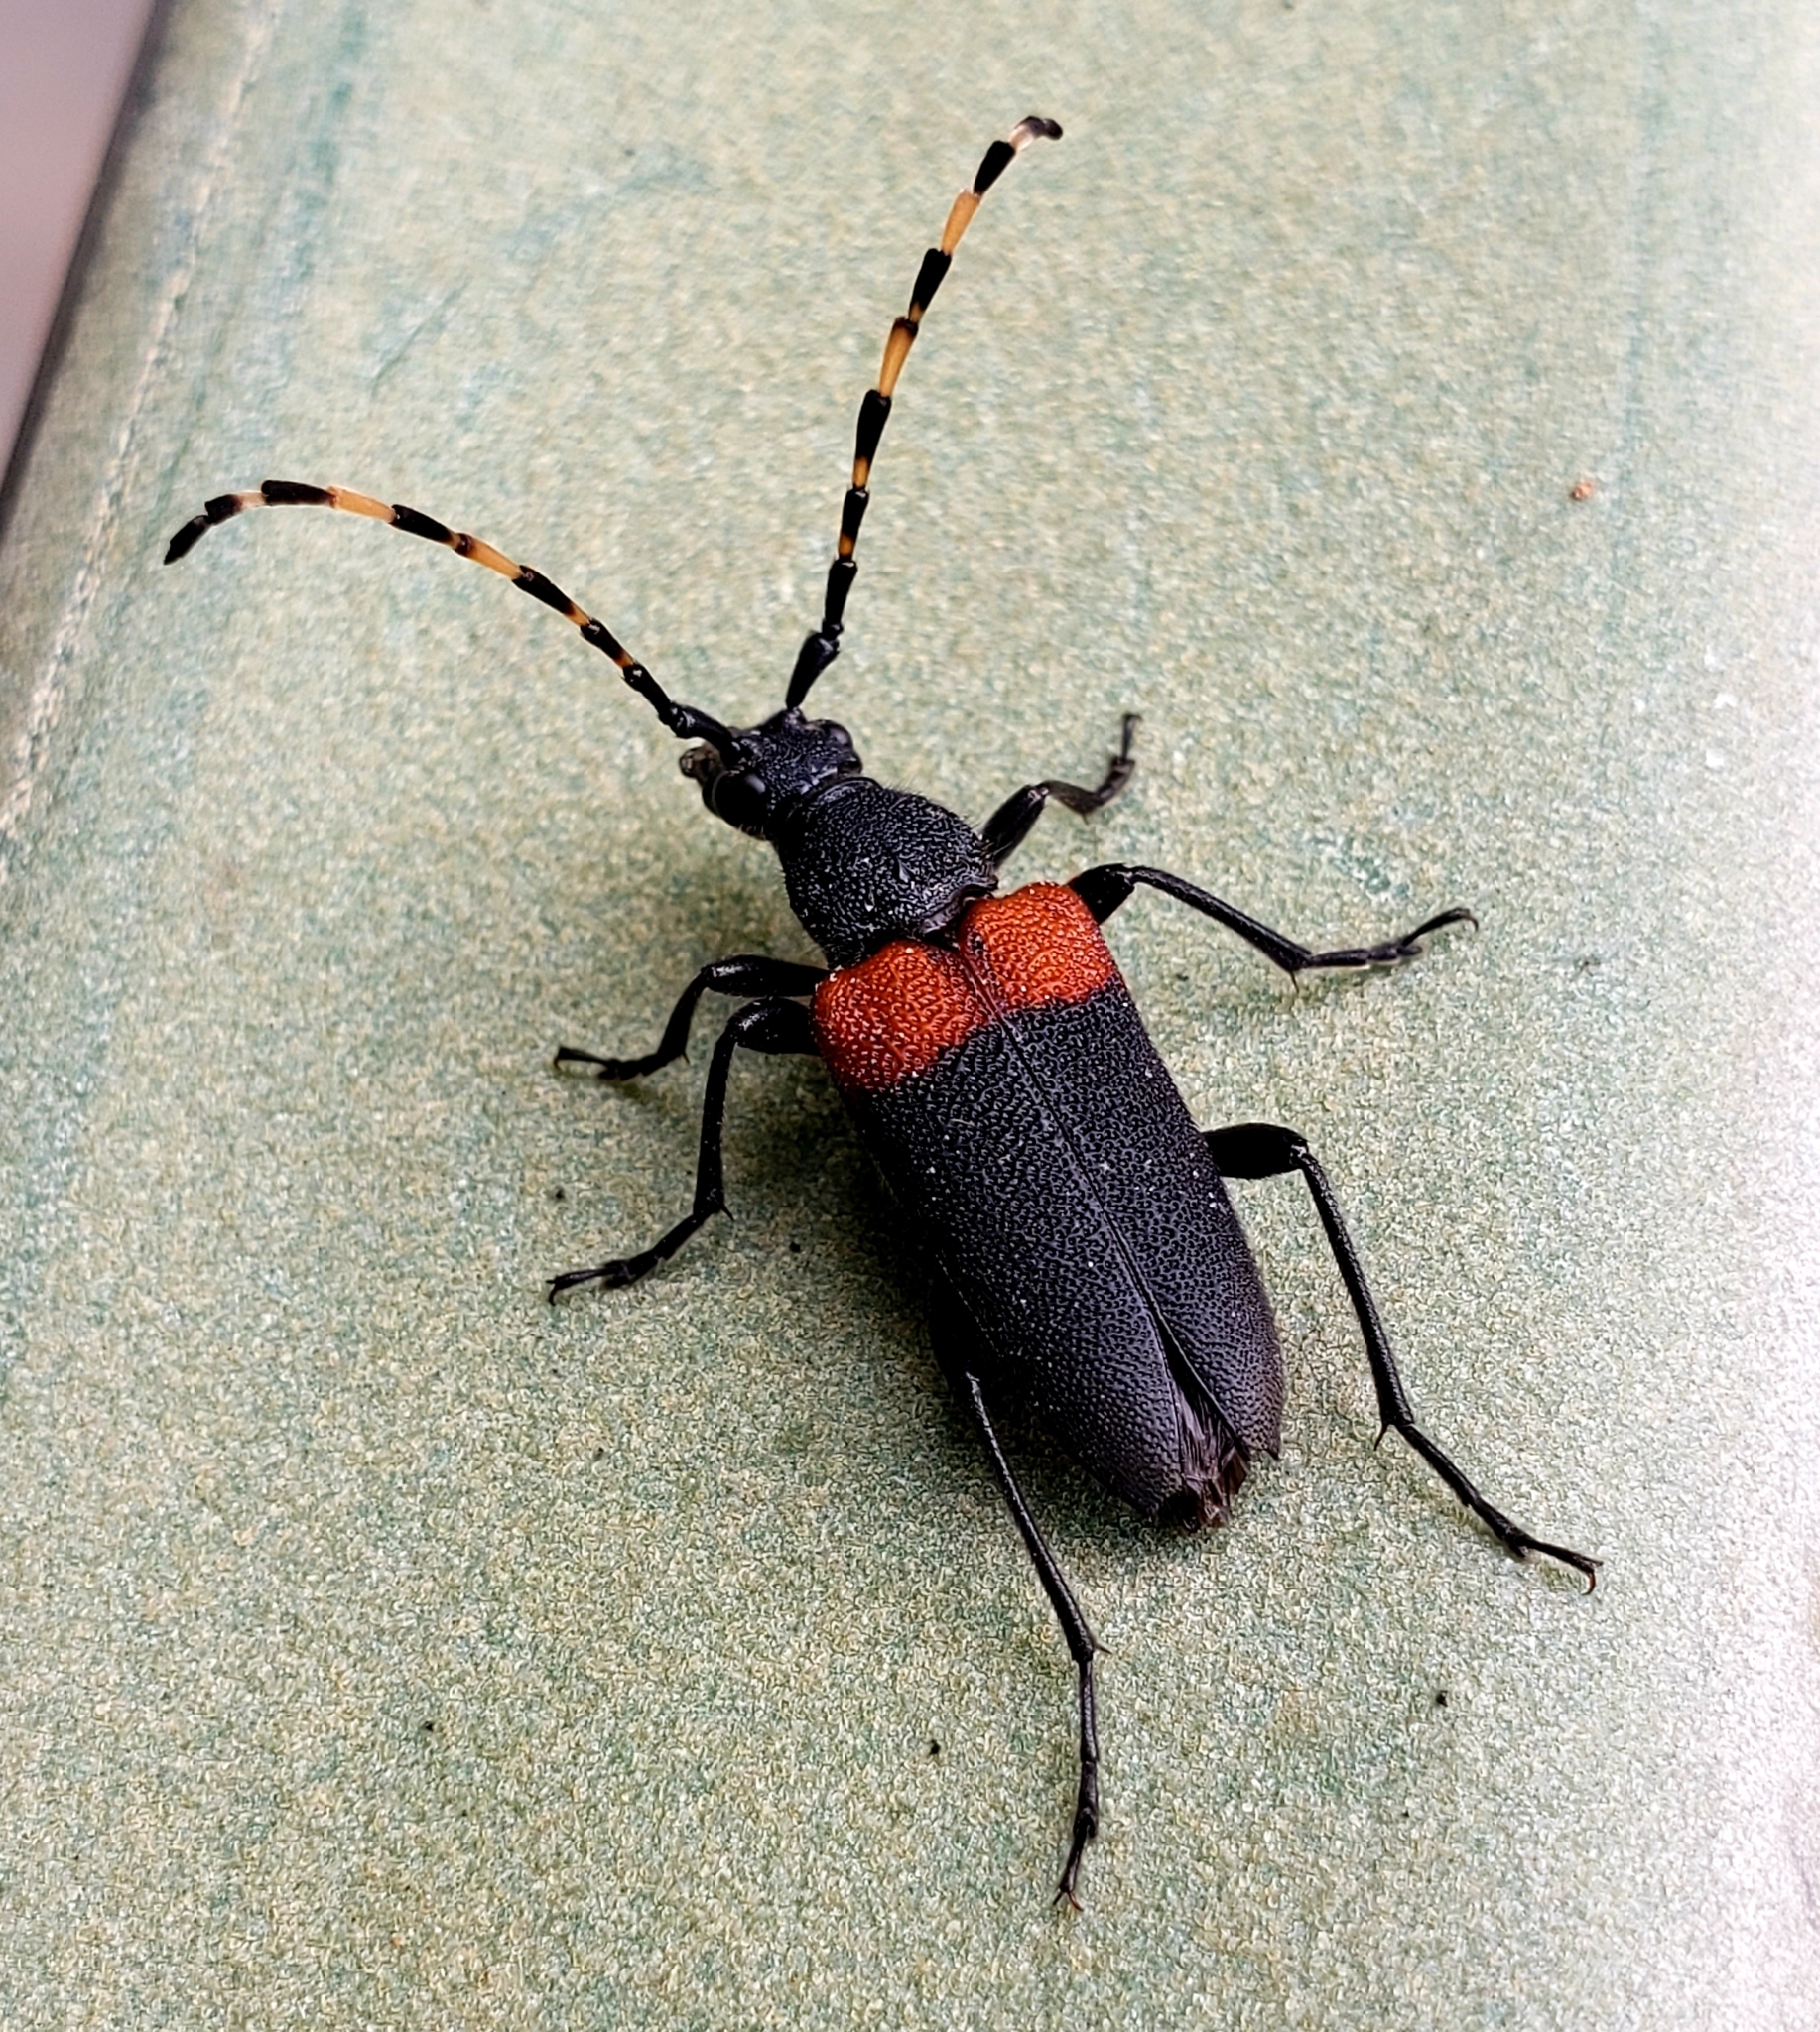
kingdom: Animalia
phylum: Arthropoda
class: Insecta
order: Coleoptera
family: Cerambycidae
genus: Stictoleptura
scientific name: Stictoleptura canadensis
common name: Red-shouldered pine borer
